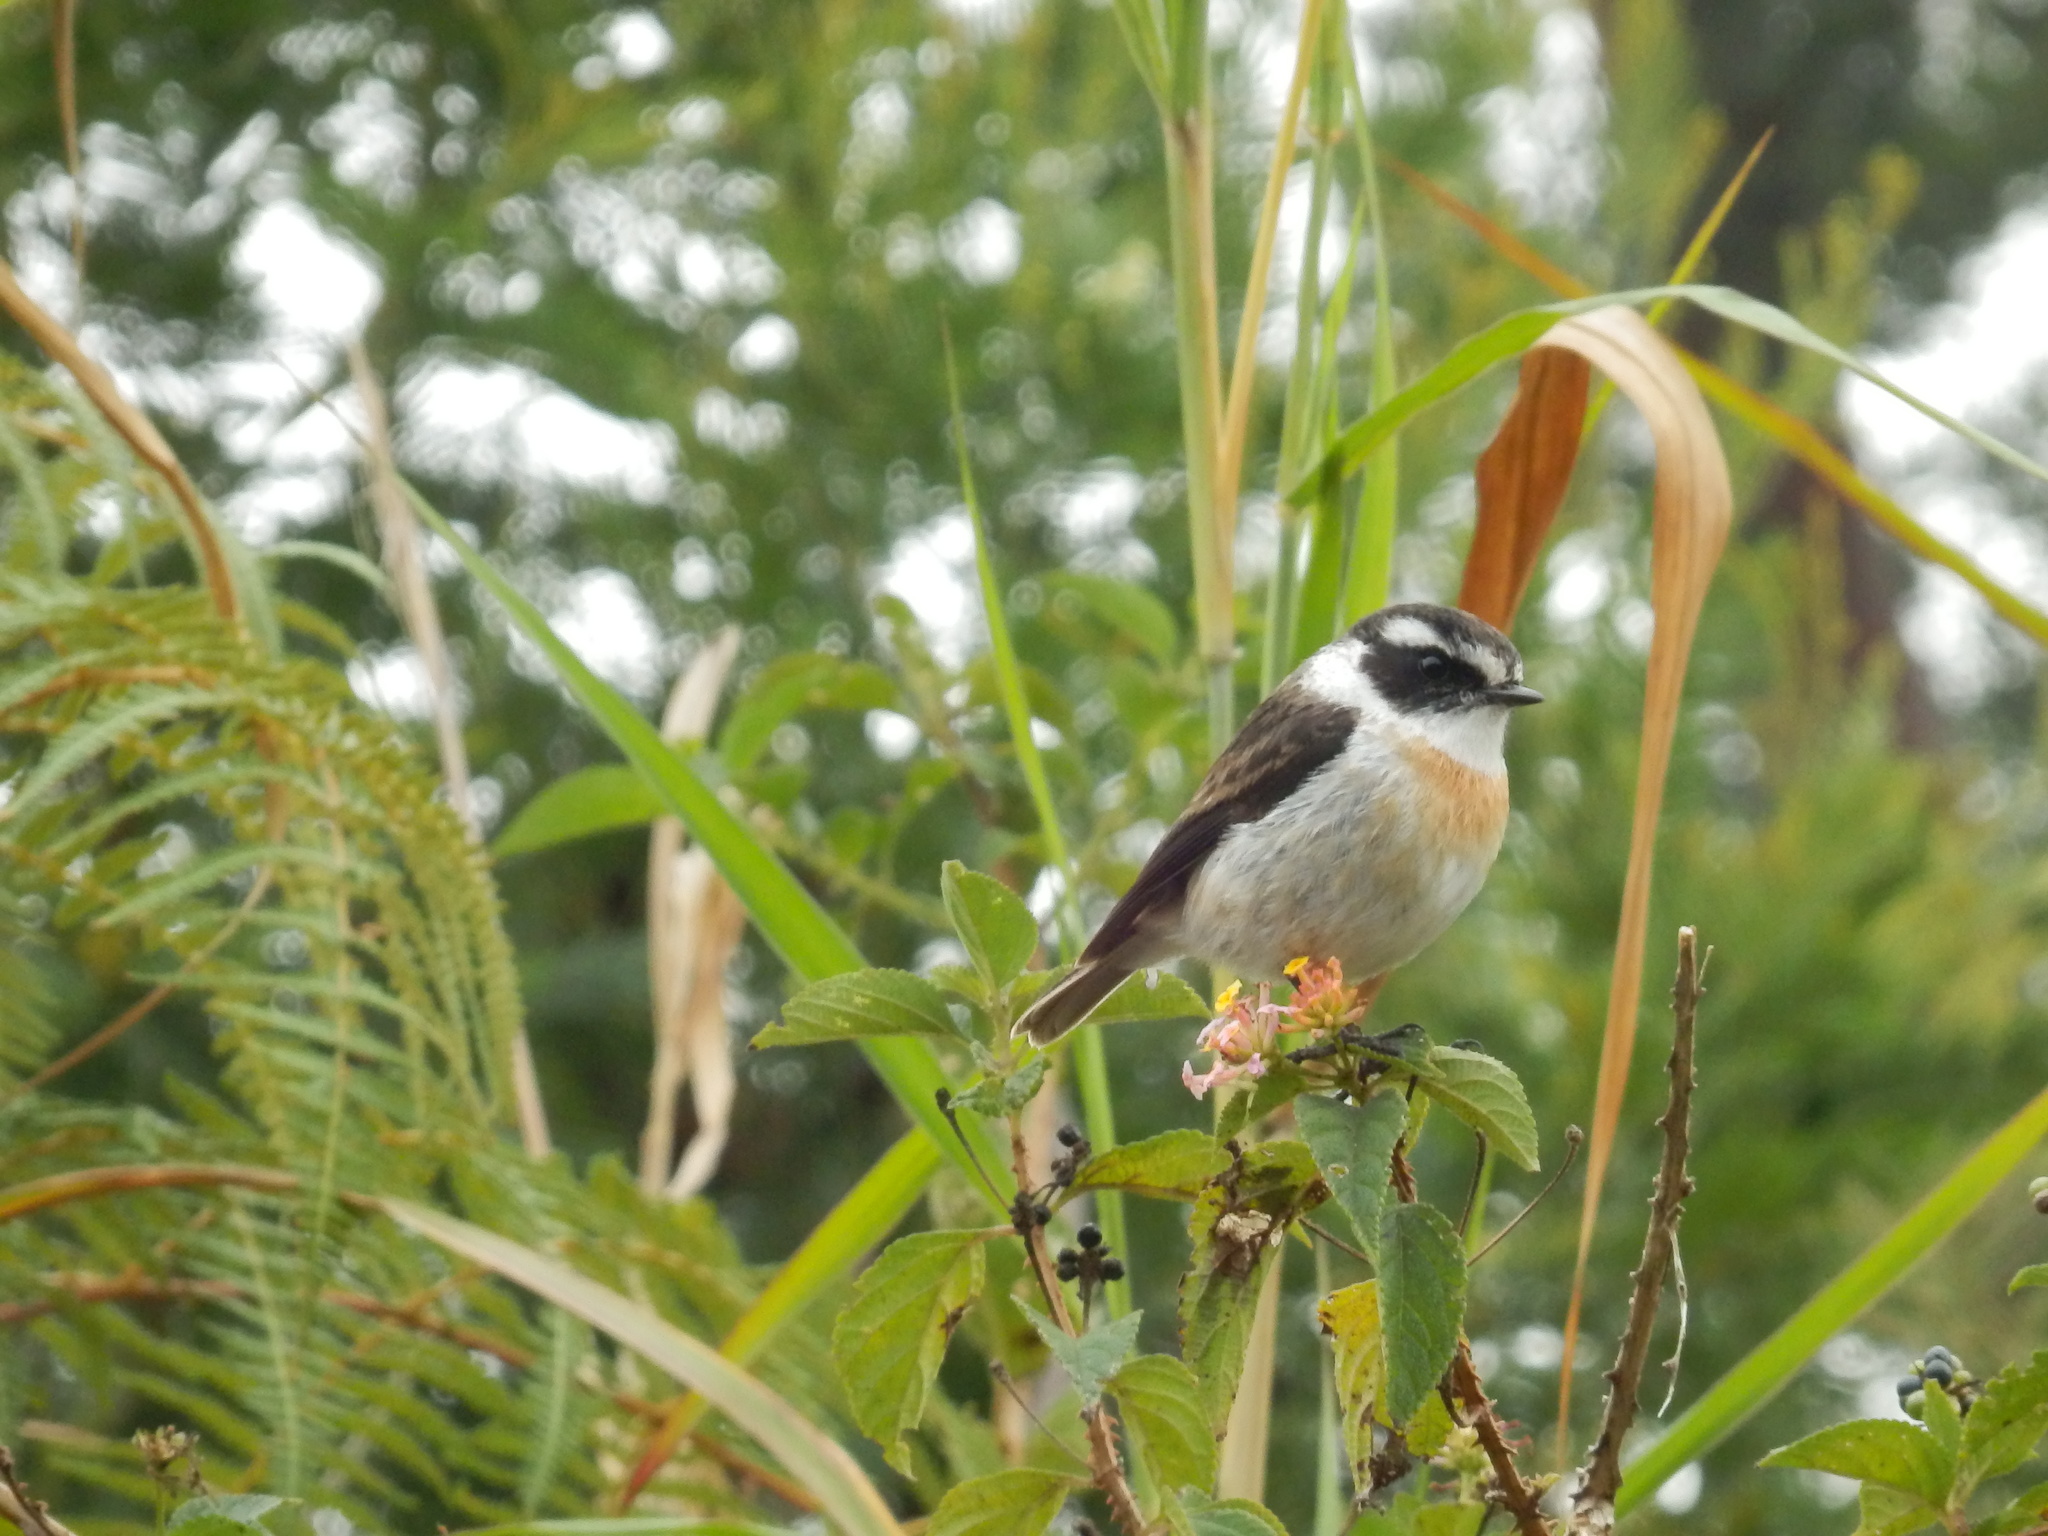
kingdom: Animalia
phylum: Chordata
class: Aves
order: Passeriformes
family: Muscicapidae
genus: Saxicola
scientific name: Saxicola tectes
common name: Reunion stonechat
